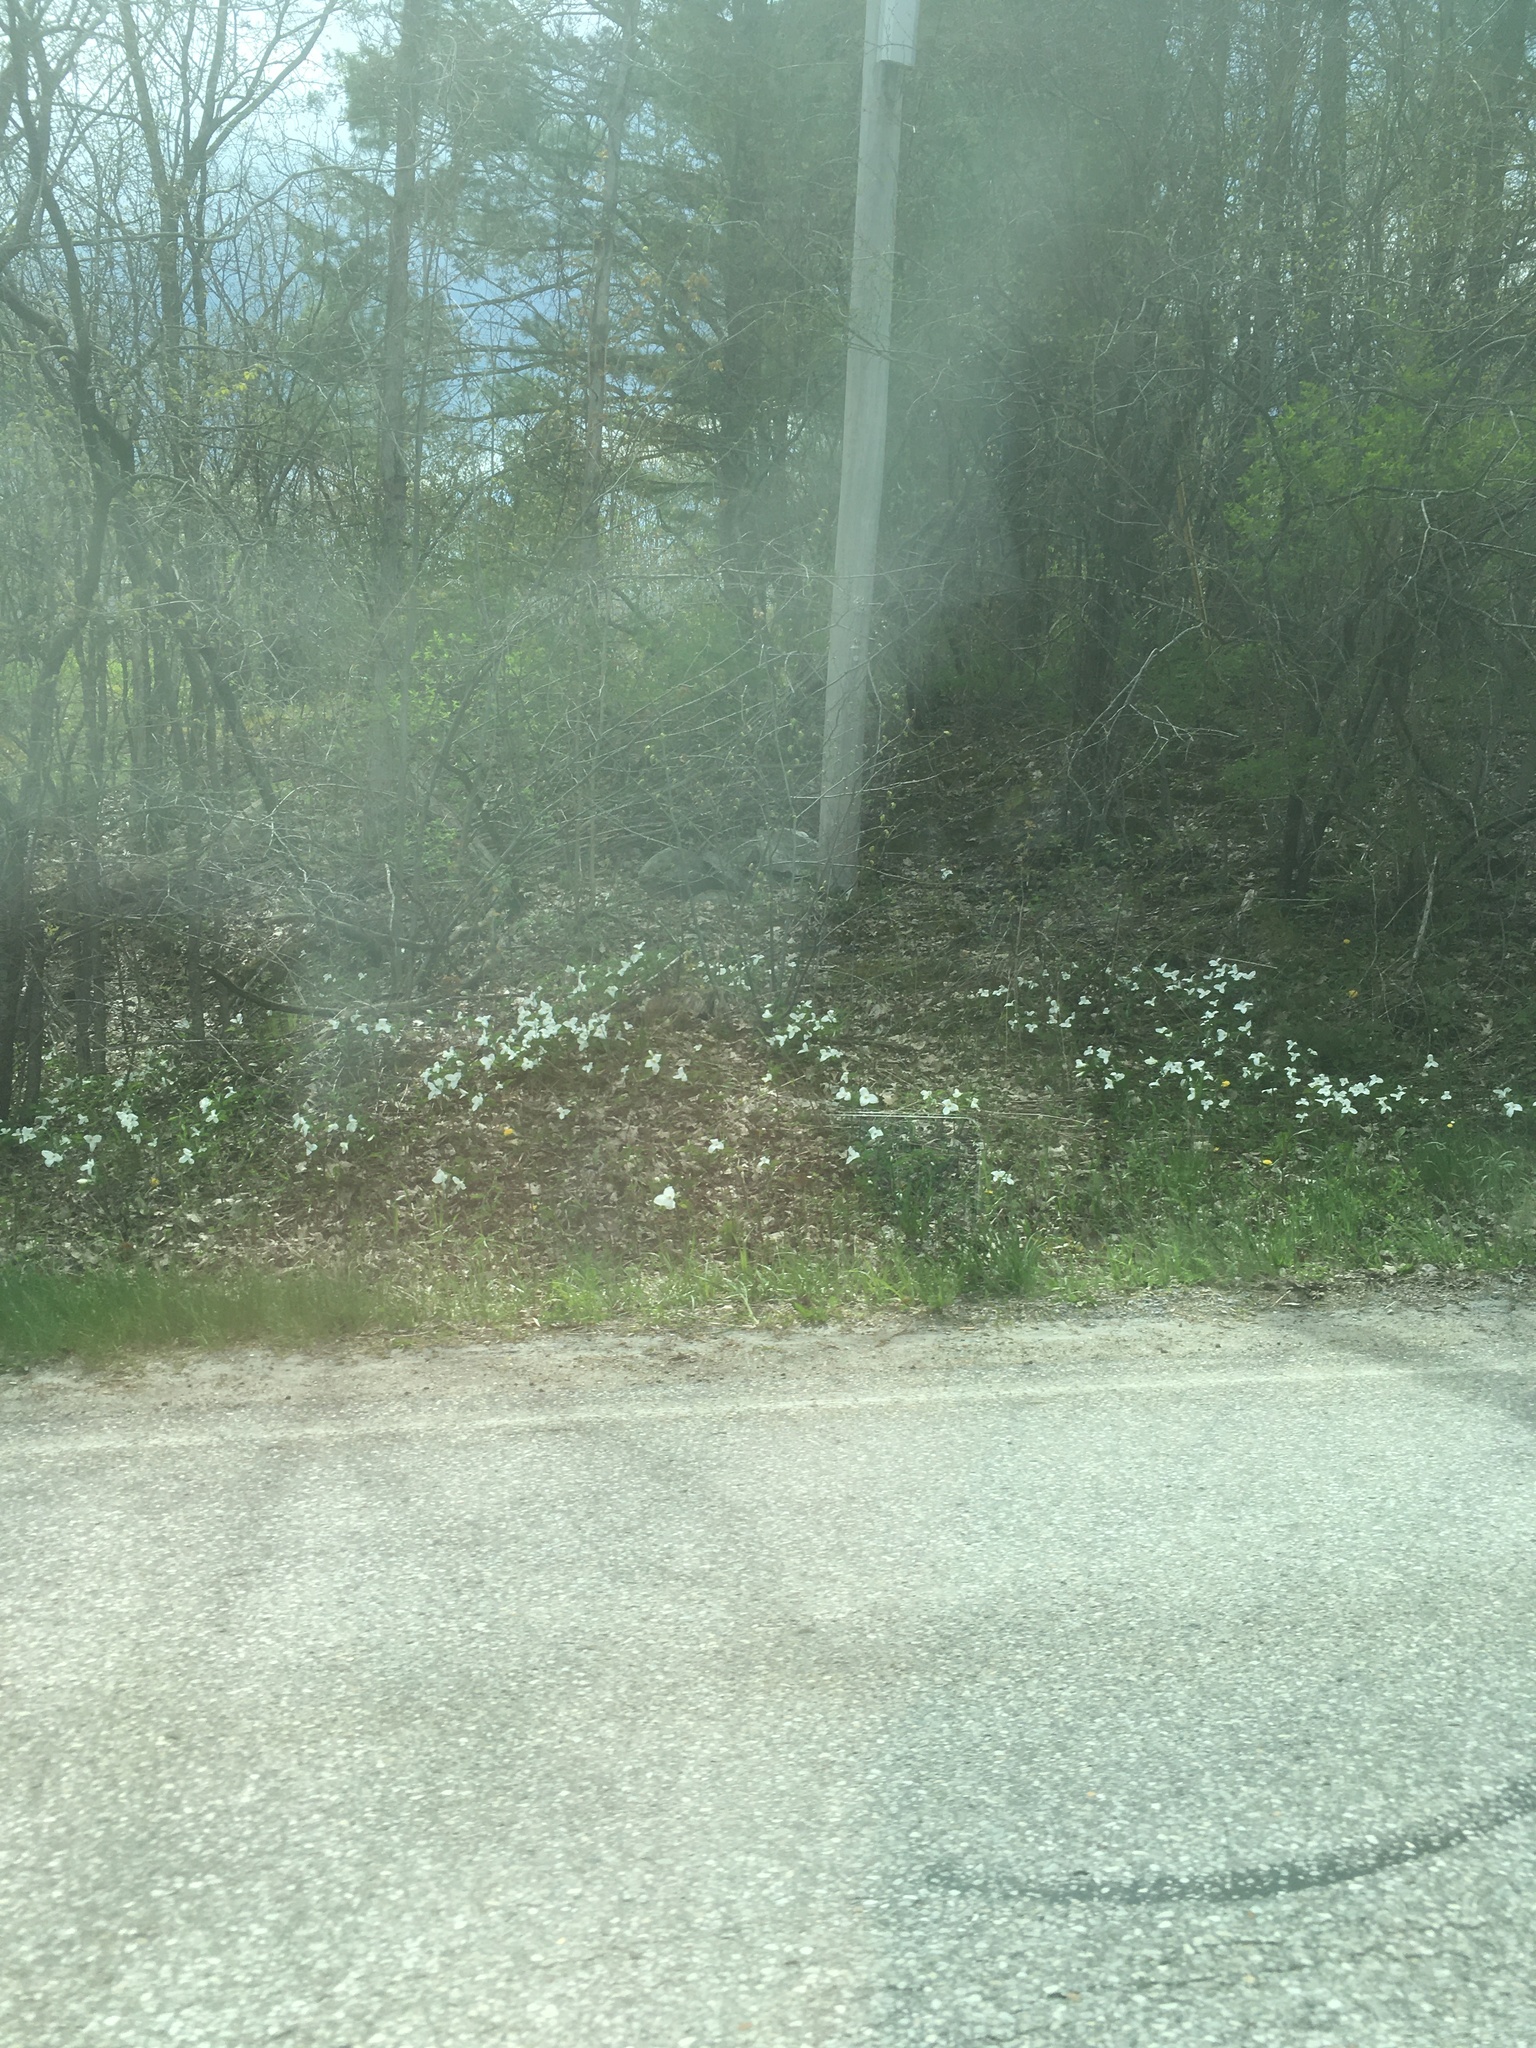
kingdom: Plantae
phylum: Tracheophyta
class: Liliopsida
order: Liliales
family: Melanthiaceae
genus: Trillium
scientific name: Trillium grandiflorum
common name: Great white trillium
